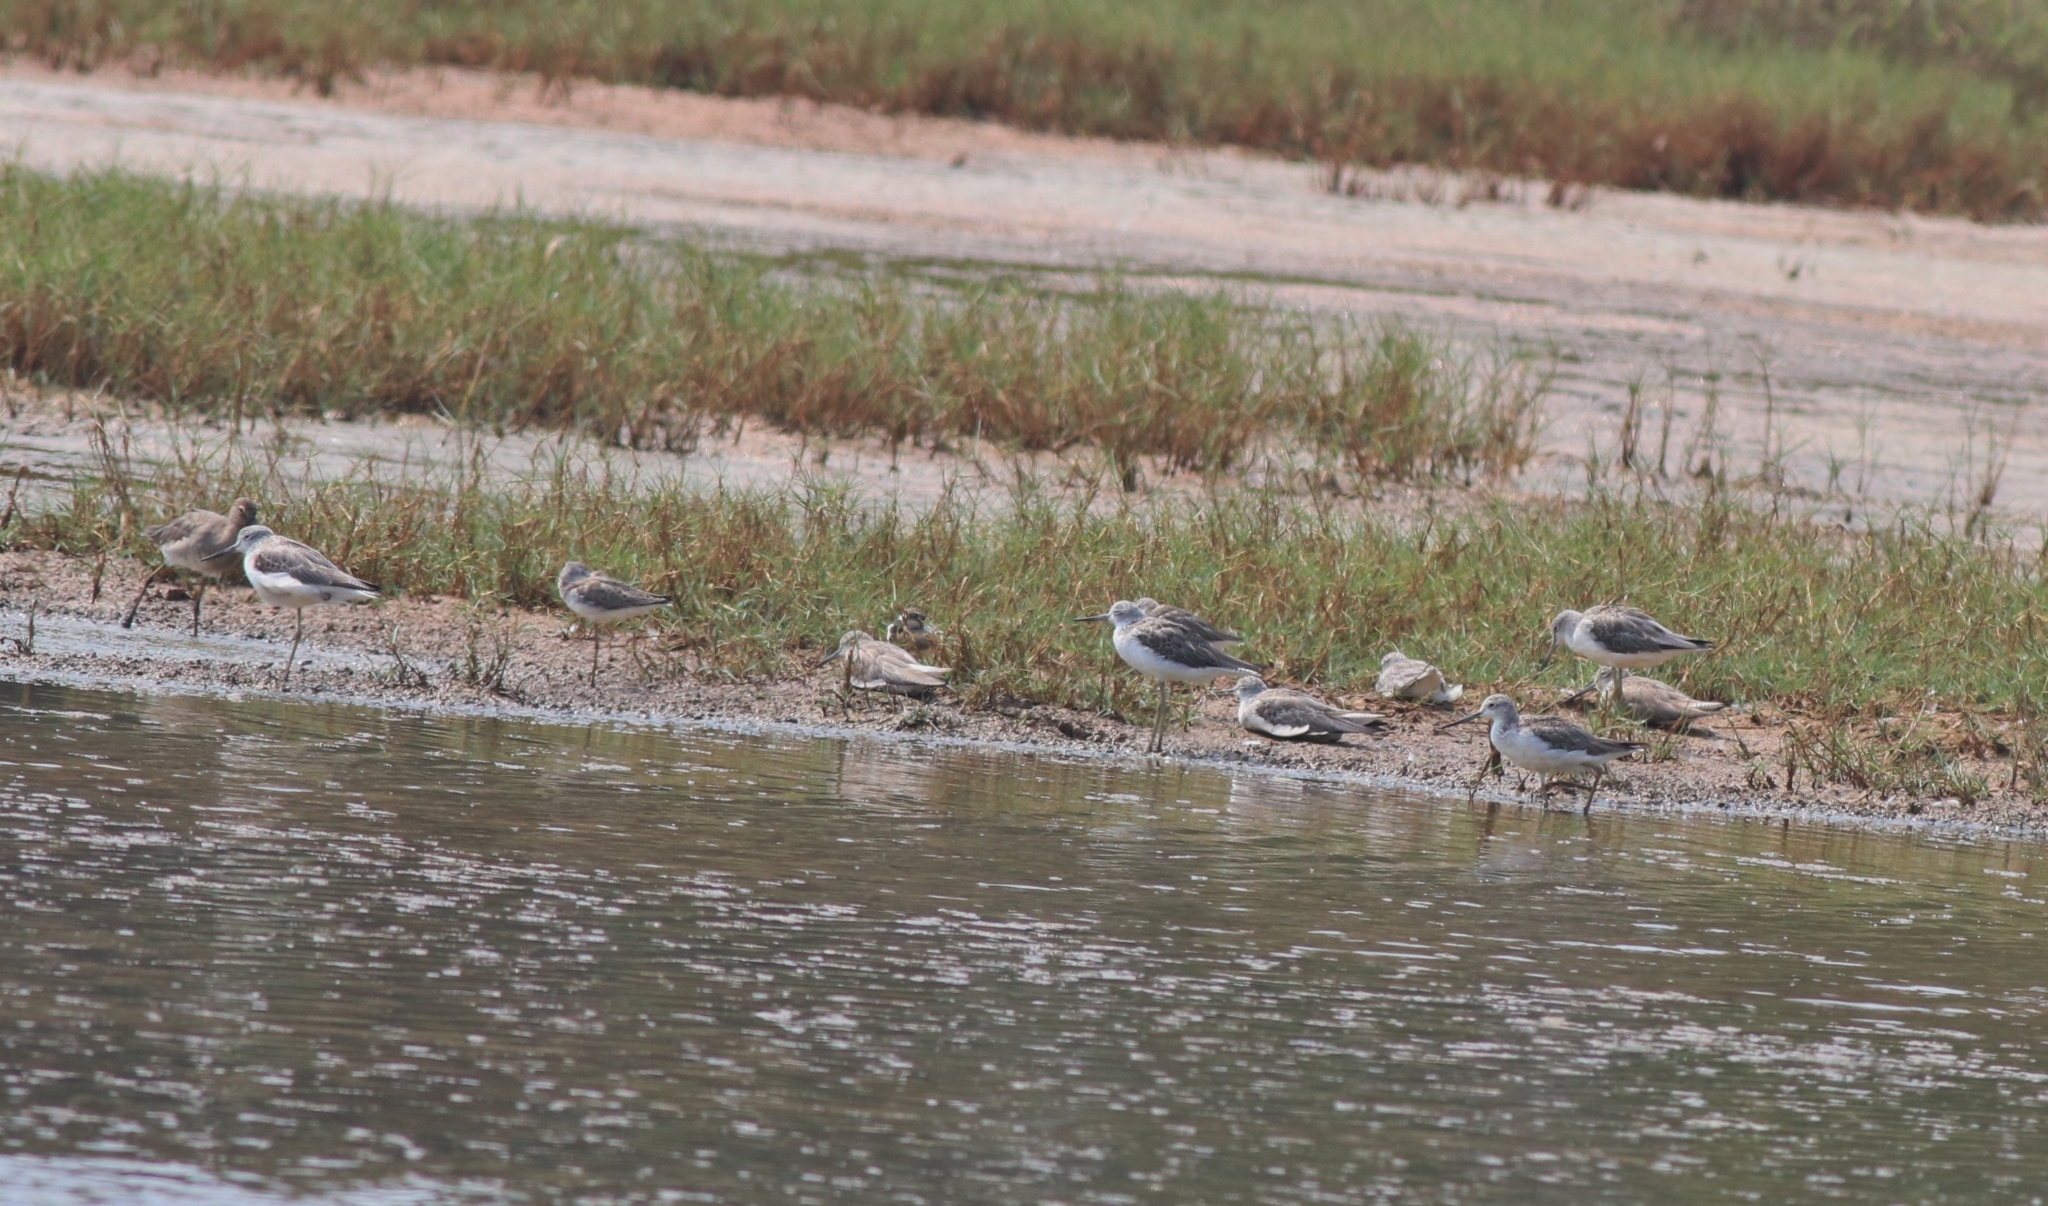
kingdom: Animalia
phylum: Chordata
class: Aves
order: Charadriiformes
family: Scolopacidae
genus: Tringa
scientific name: Tringa nebularia
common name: Common greenshank
